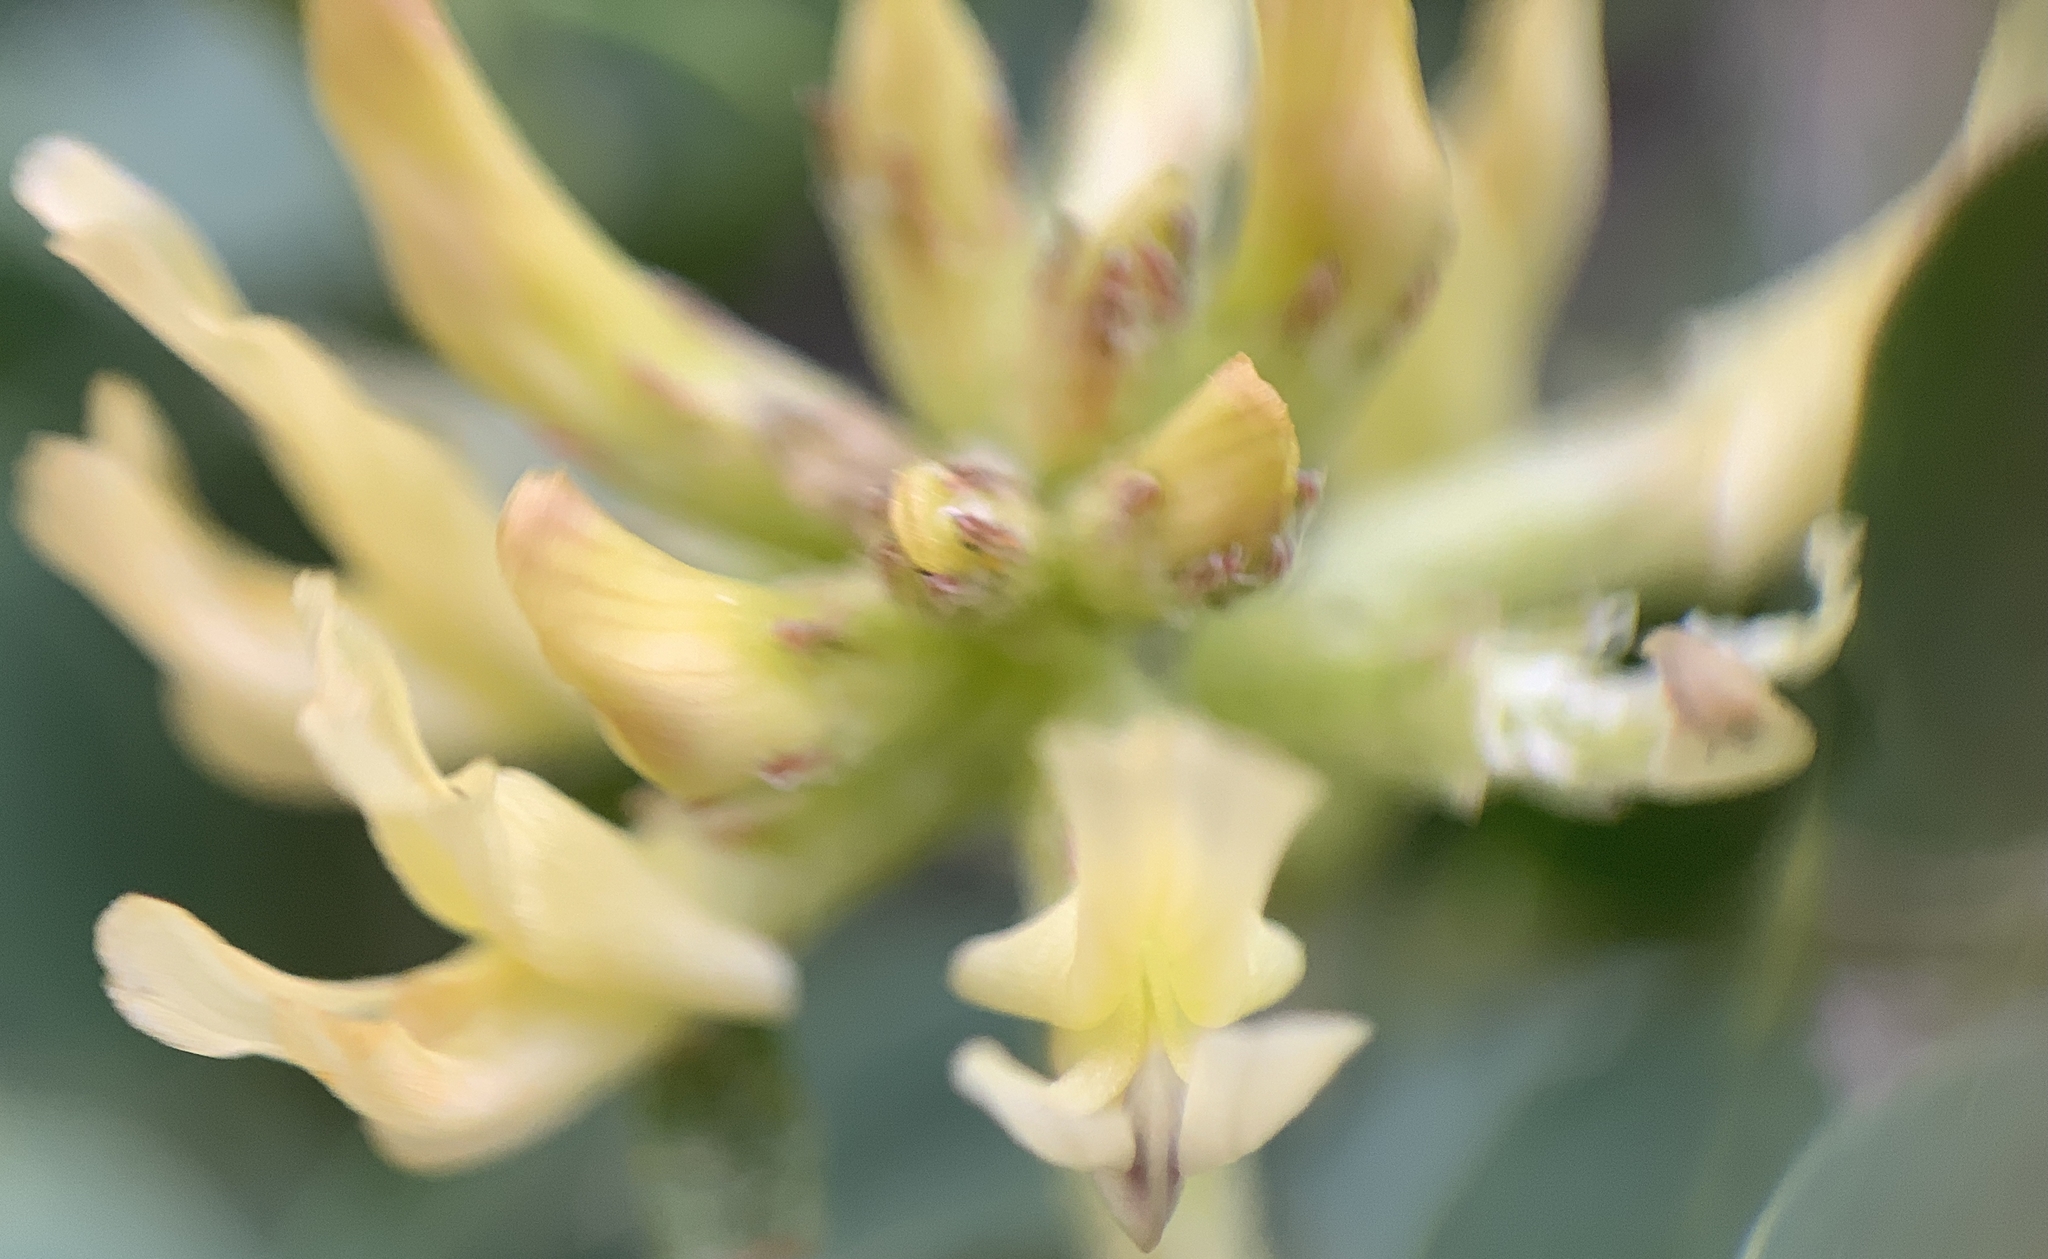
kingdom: Plantae
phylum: Tracheophyta
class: Magnoliopsida
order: Fabales
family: Fabaceae
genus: Astragalus
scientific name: Astragalus lentiginosus
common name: Freckled milkvetch
